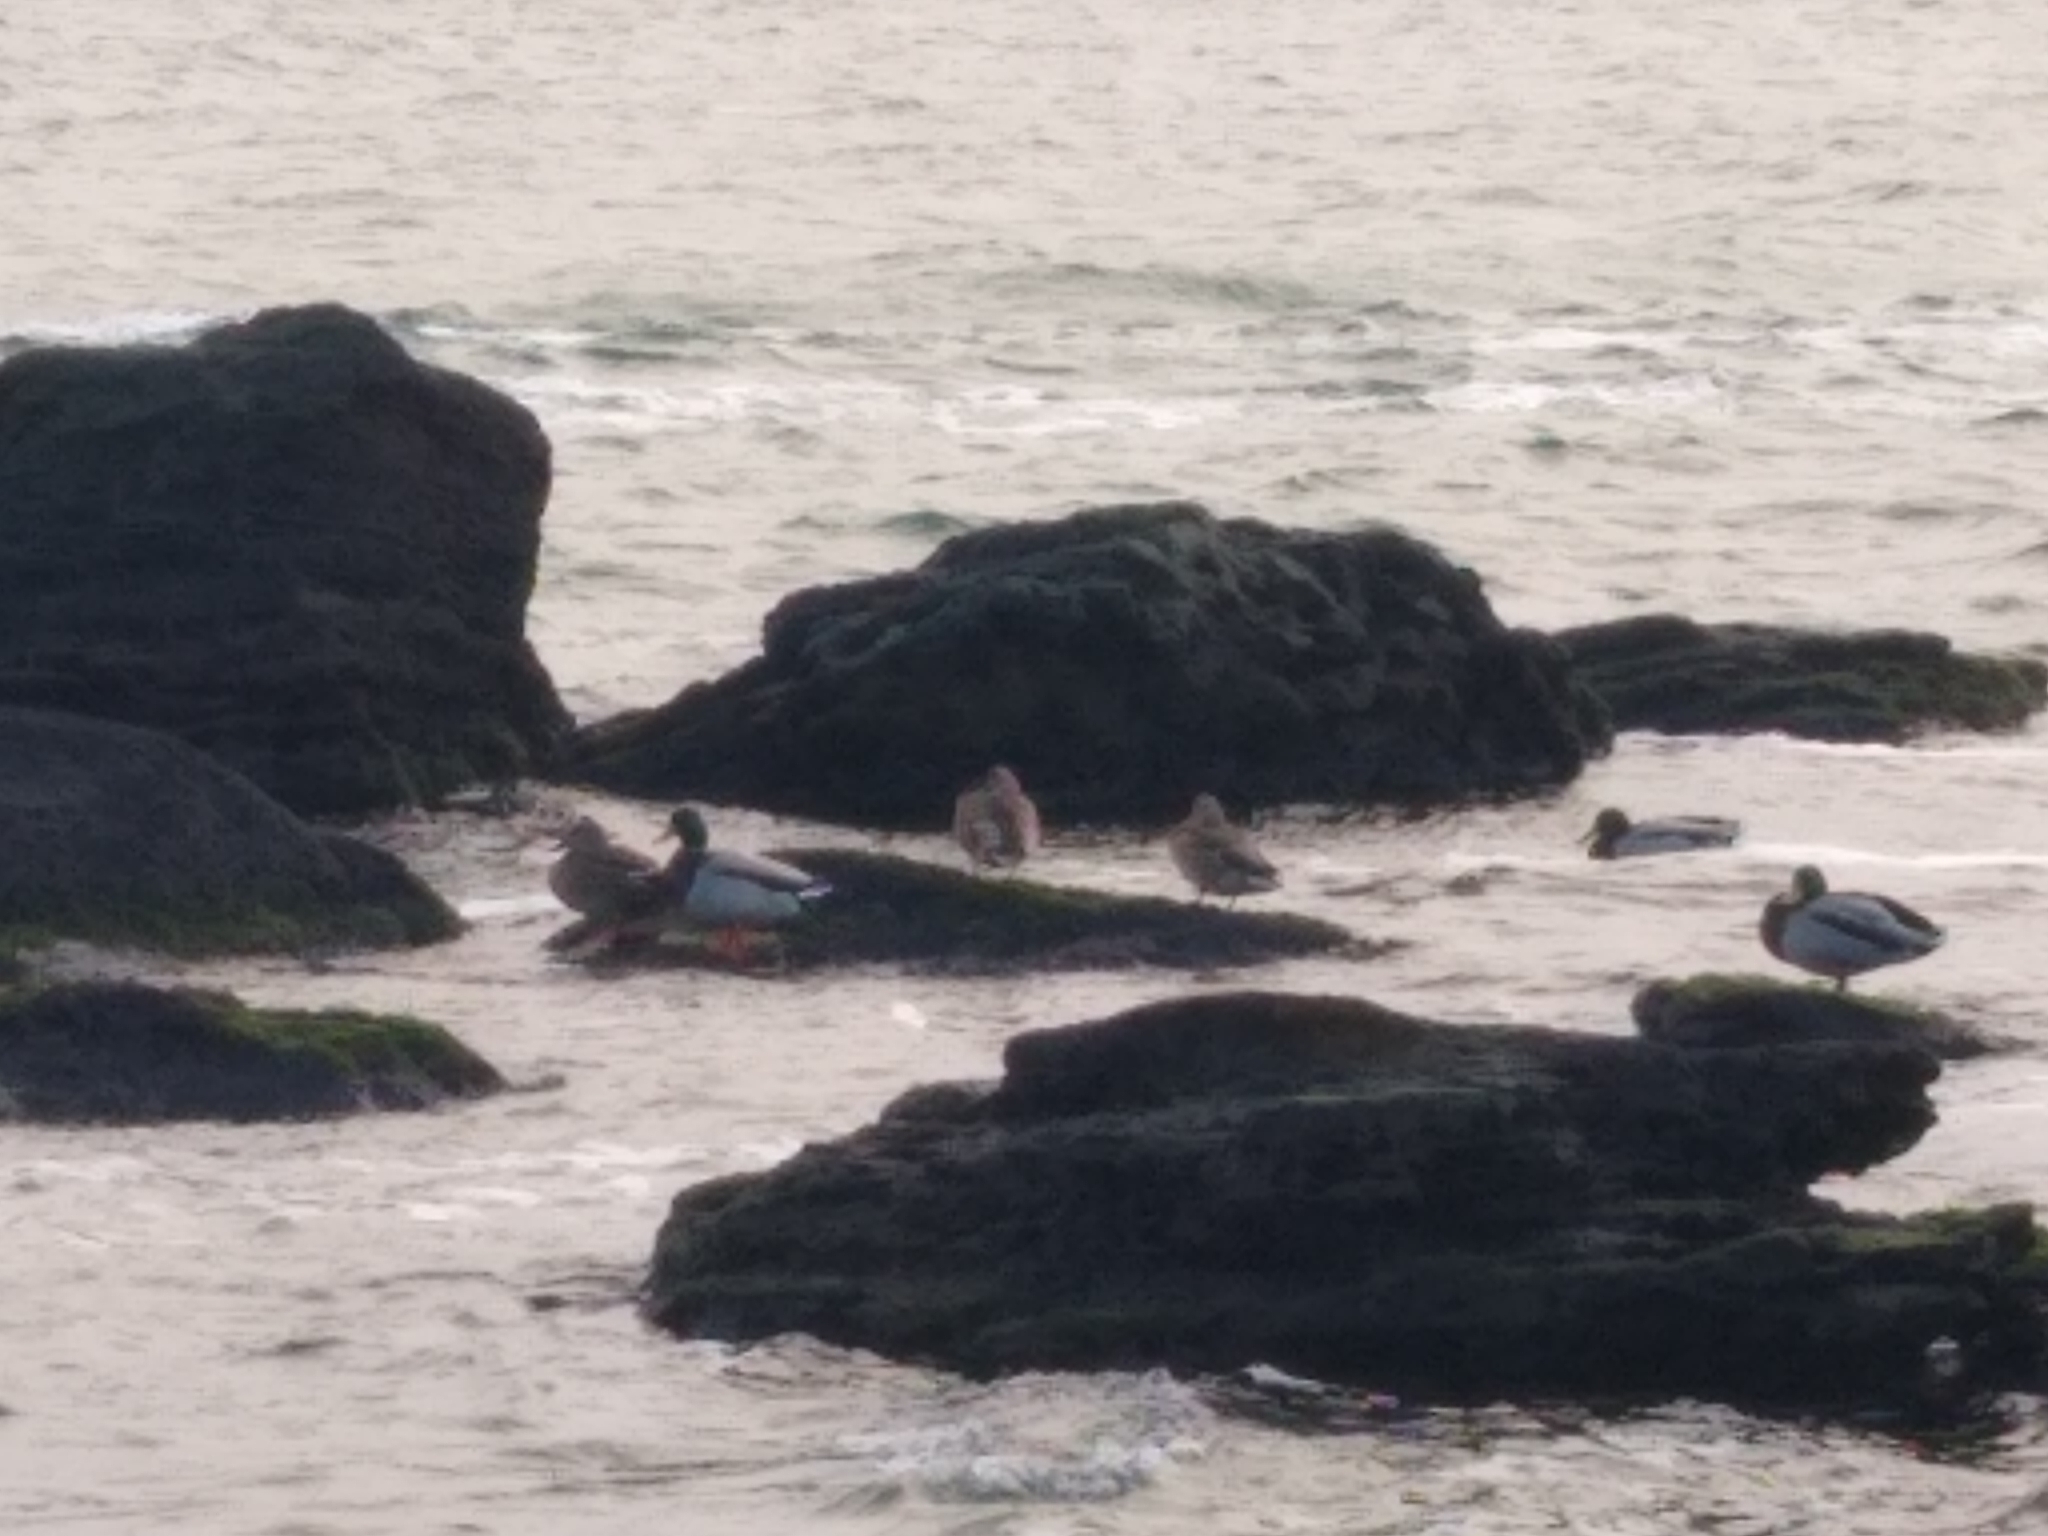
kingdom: Animalia
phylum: Chordata
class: Aves
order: Anseriformes
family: Anatidae
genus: Anas
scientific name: Anas platyrhynchos
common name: Mallard
